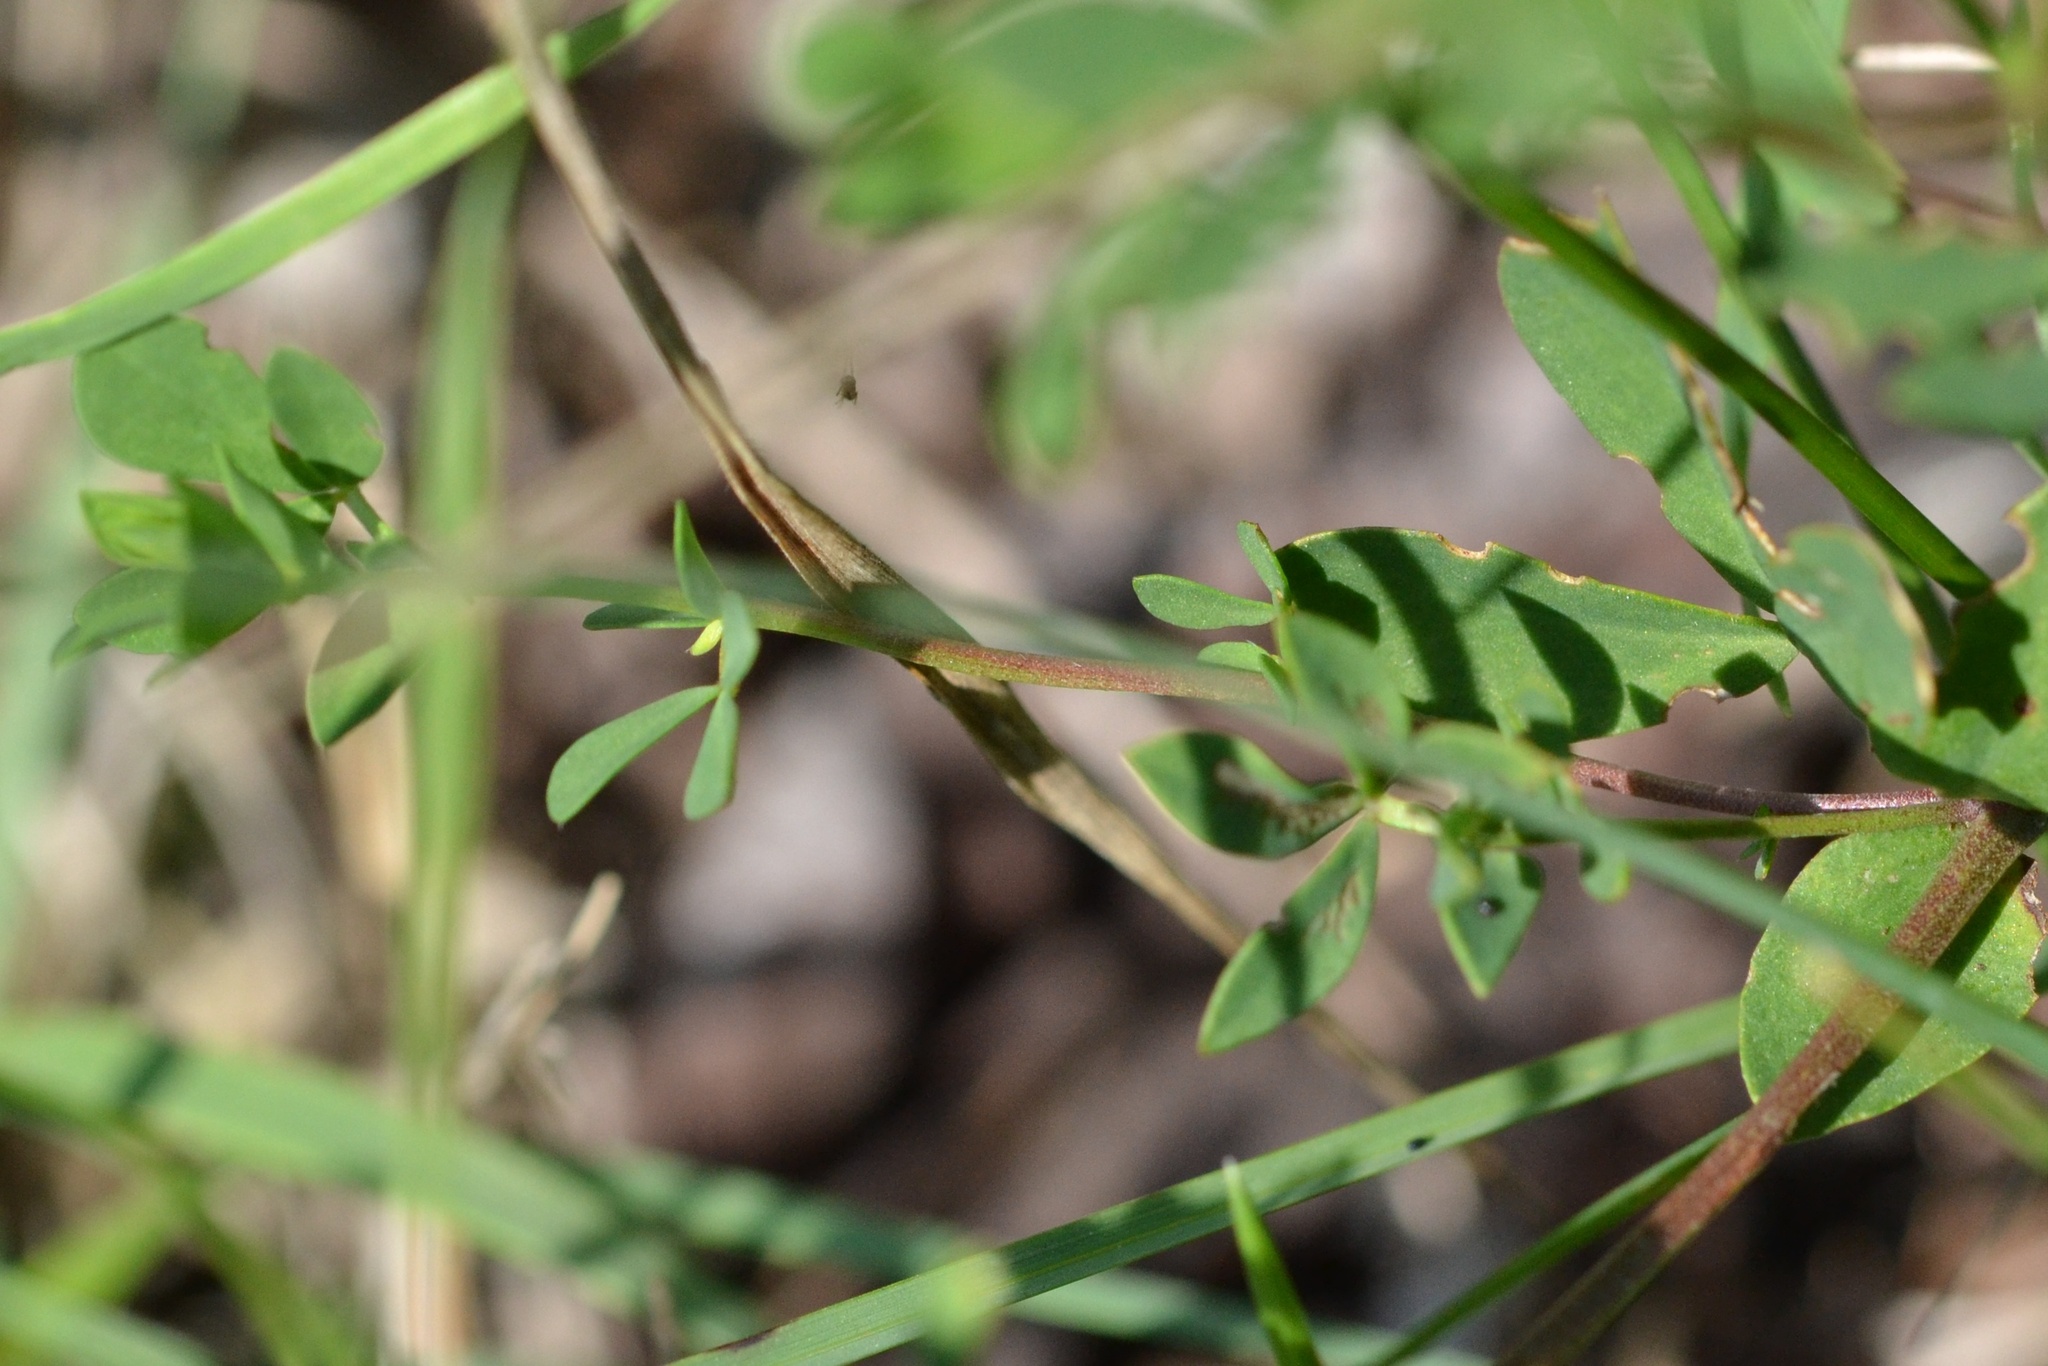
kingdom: Plantae
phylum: Tracheophyta
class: Magnoliopsida
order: Fabales
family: Fabaceae
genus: Lotus
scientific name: Lotus corniculatus
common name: Common bird's-foot-trefoil
